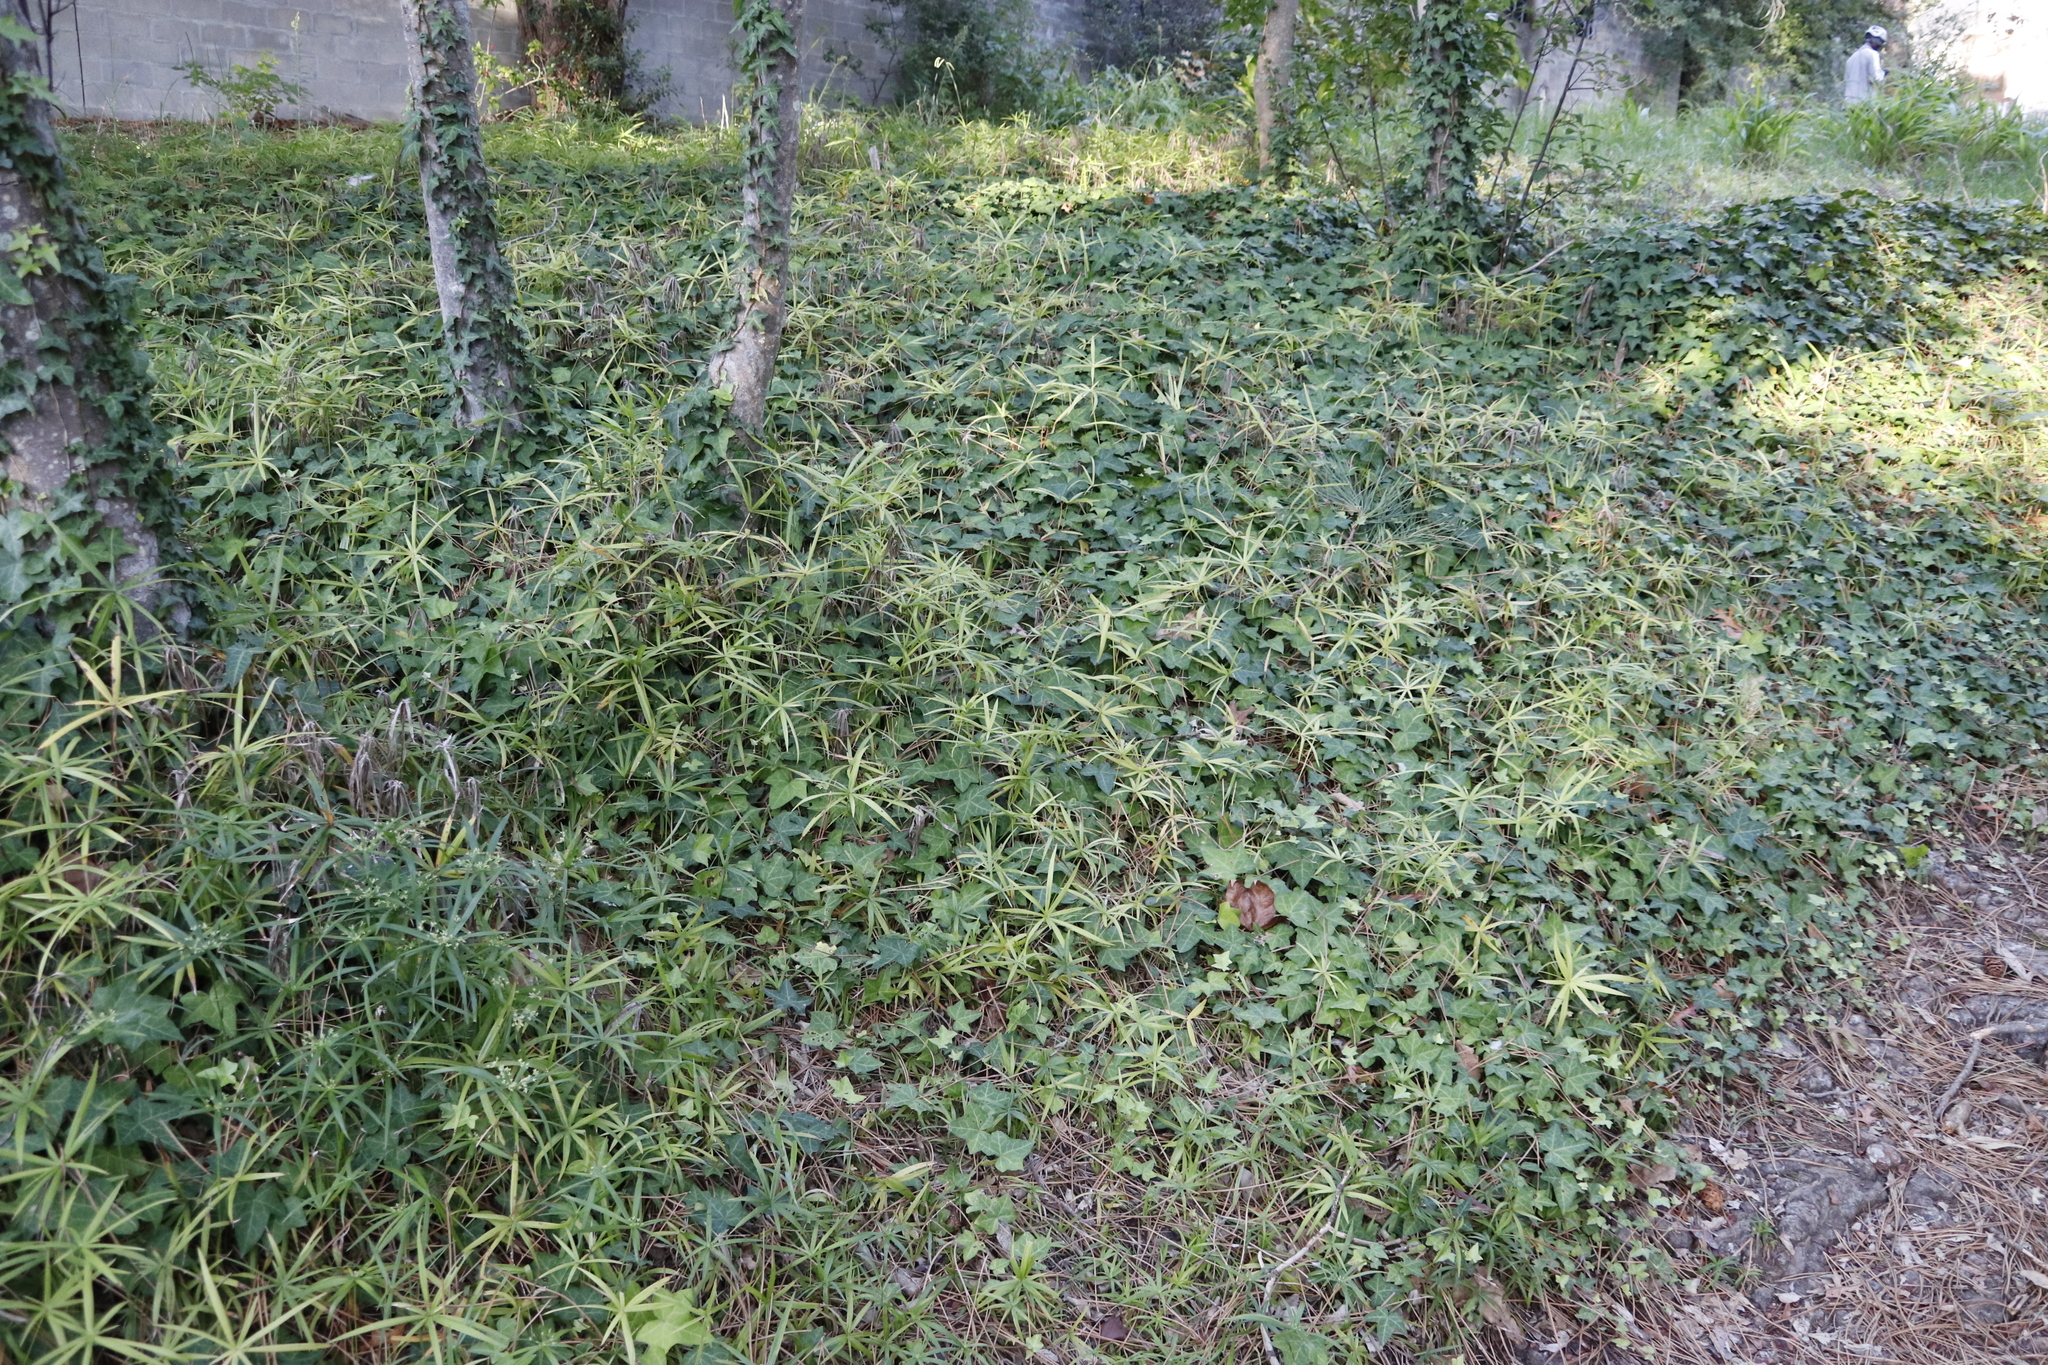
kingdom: Plantae
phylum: Tracheophyta
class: Liliopsida
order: Poales
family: Cyperaceae
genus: Cyperus
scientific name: Cyperus albostriatus
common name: Dwarf umbrella-grass
